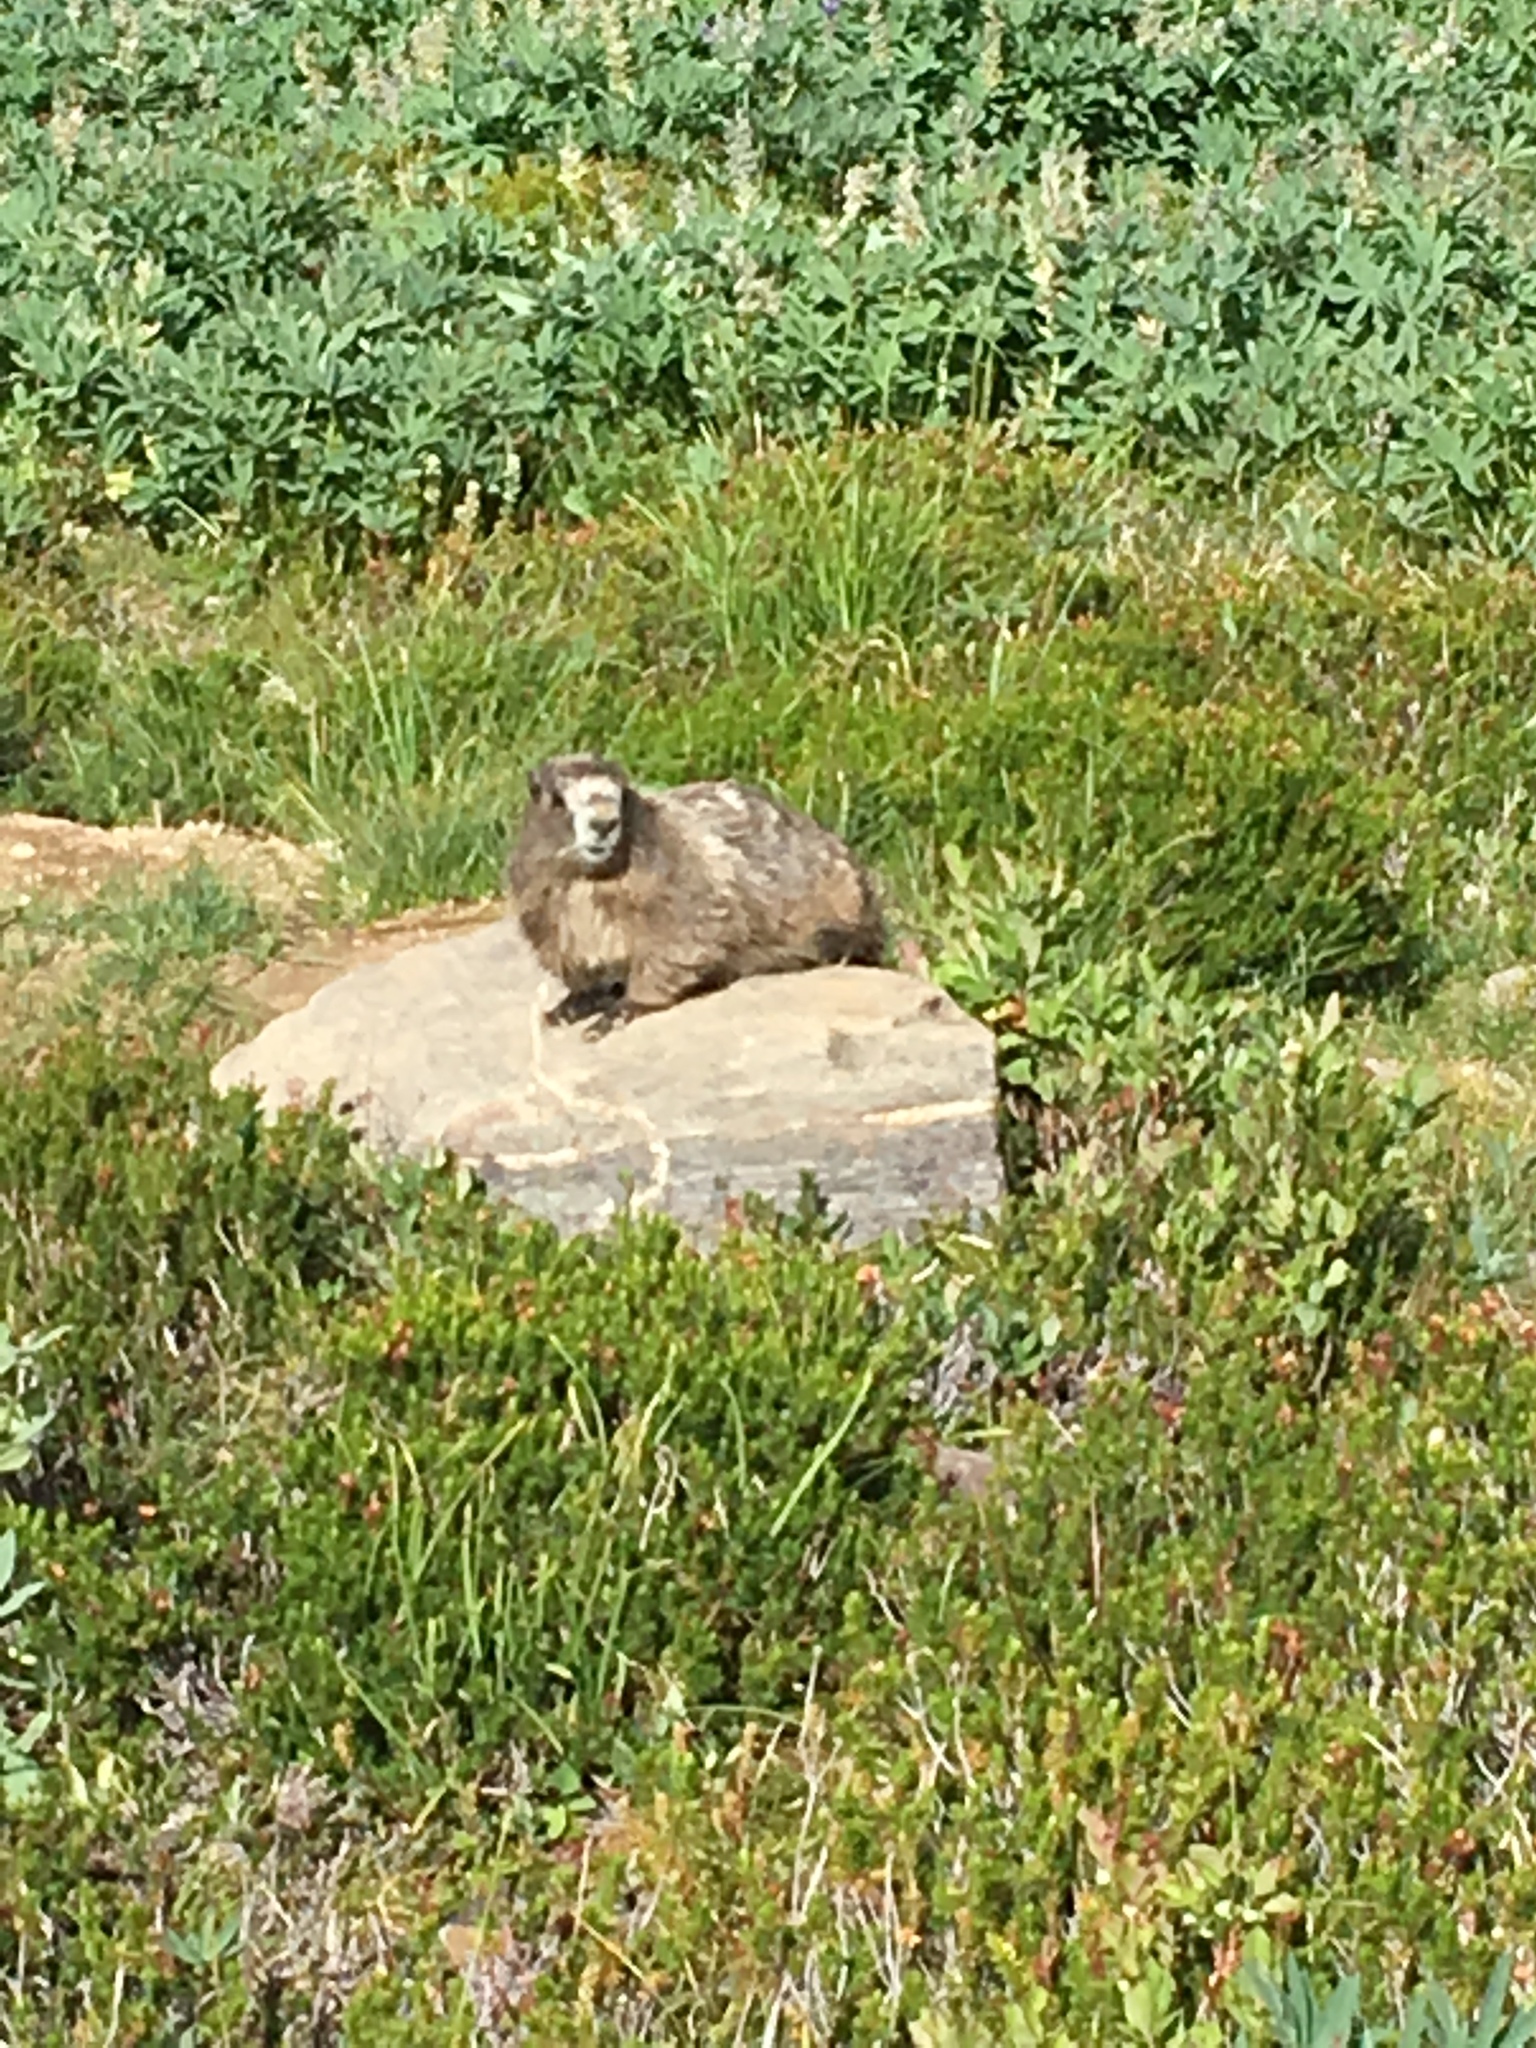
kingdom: Animalia
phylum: Chordata
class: Mammalia
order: Rodentia
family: Sciuridae
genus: Marmota
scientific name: Marmota caligata
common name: Hoary marmot
